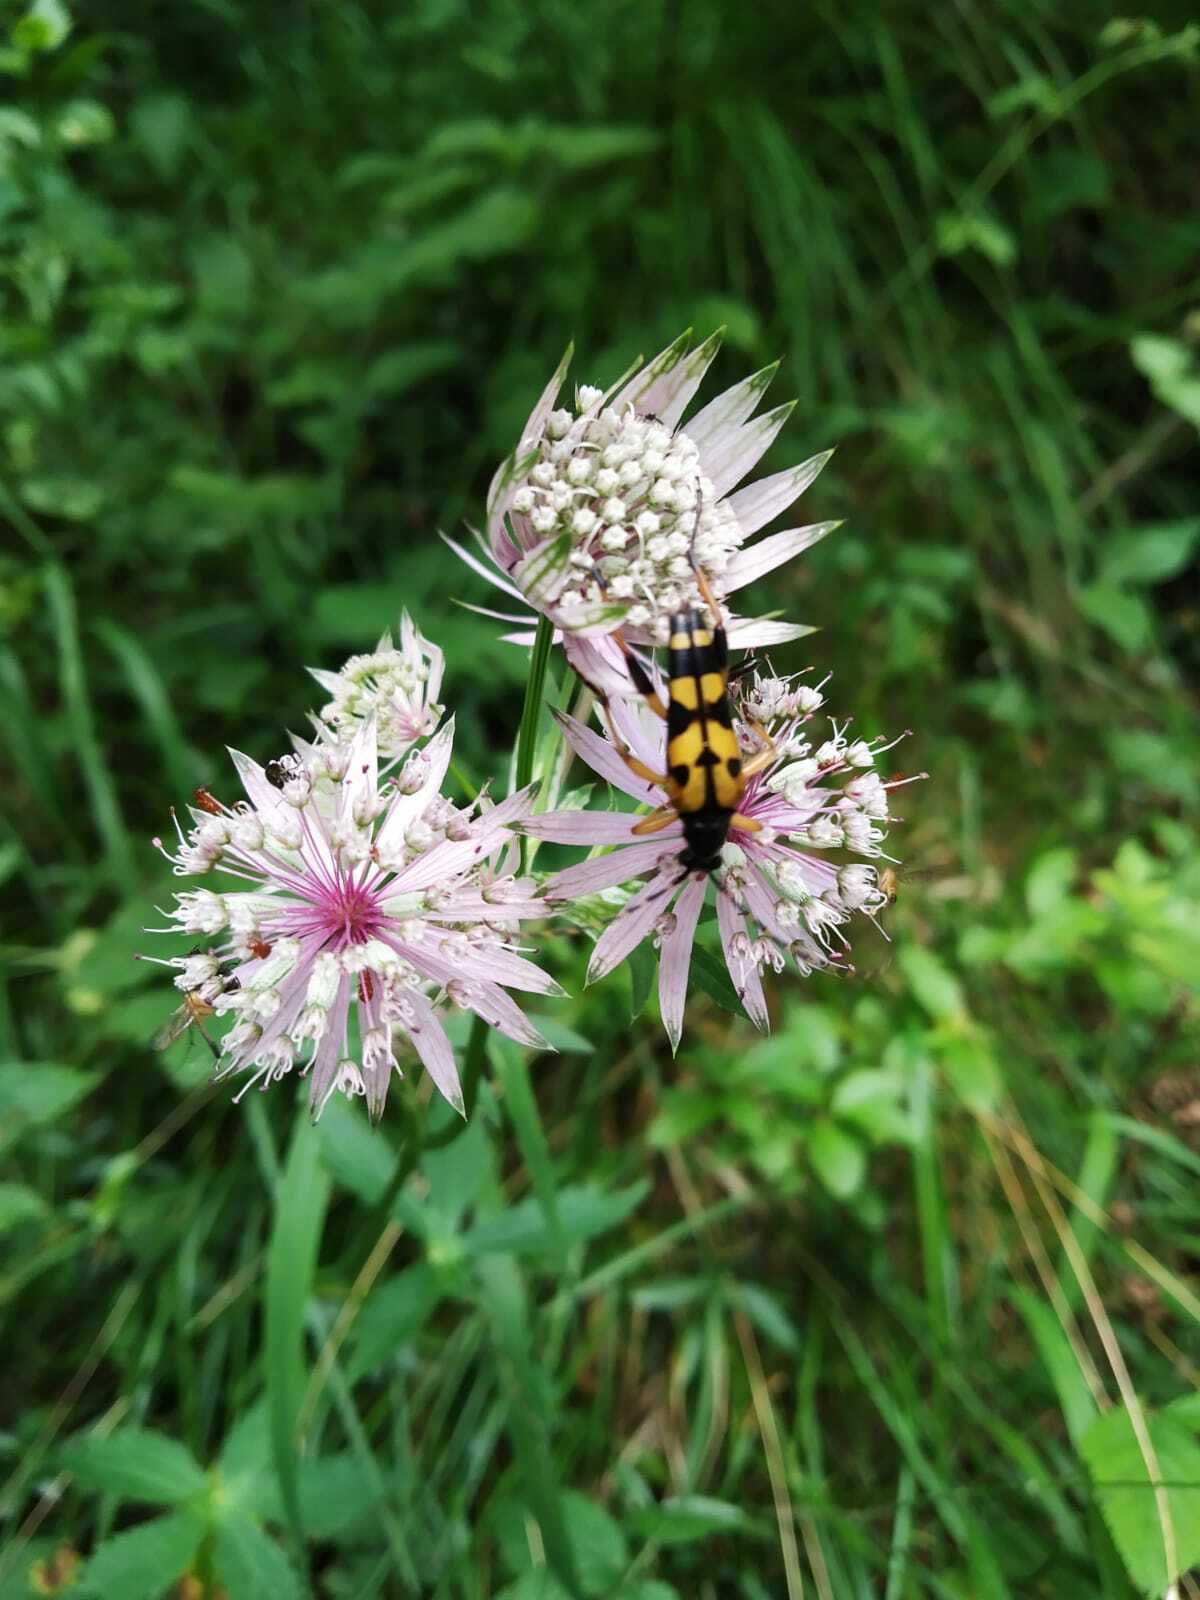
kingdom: Animalia
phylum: Arthropoda
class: Insecta
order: Coleoptera
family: Cerambycidae
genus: Rutpela
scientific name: Rutpela maculata
